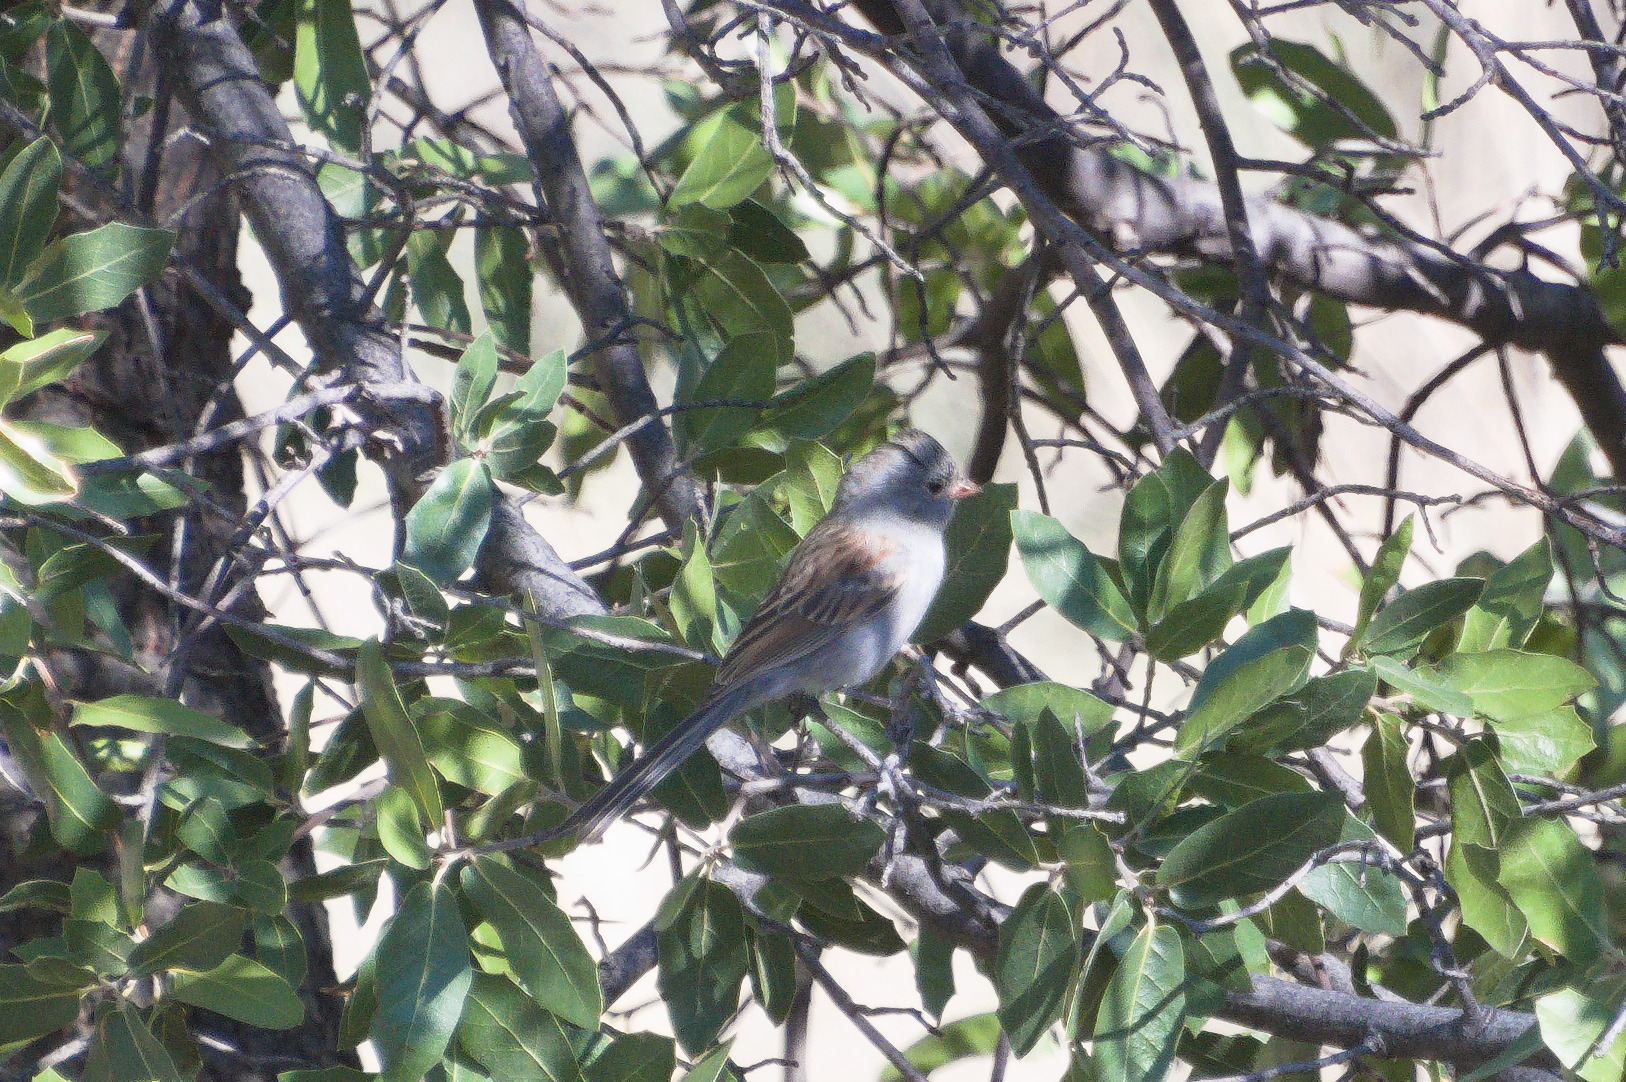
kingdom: Animalia
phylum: Chordata
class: Aves
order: Passeriformes
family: Passerellidae
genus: Spizella
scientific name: Spizella atrogularis
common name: Black-chinned sparrow
